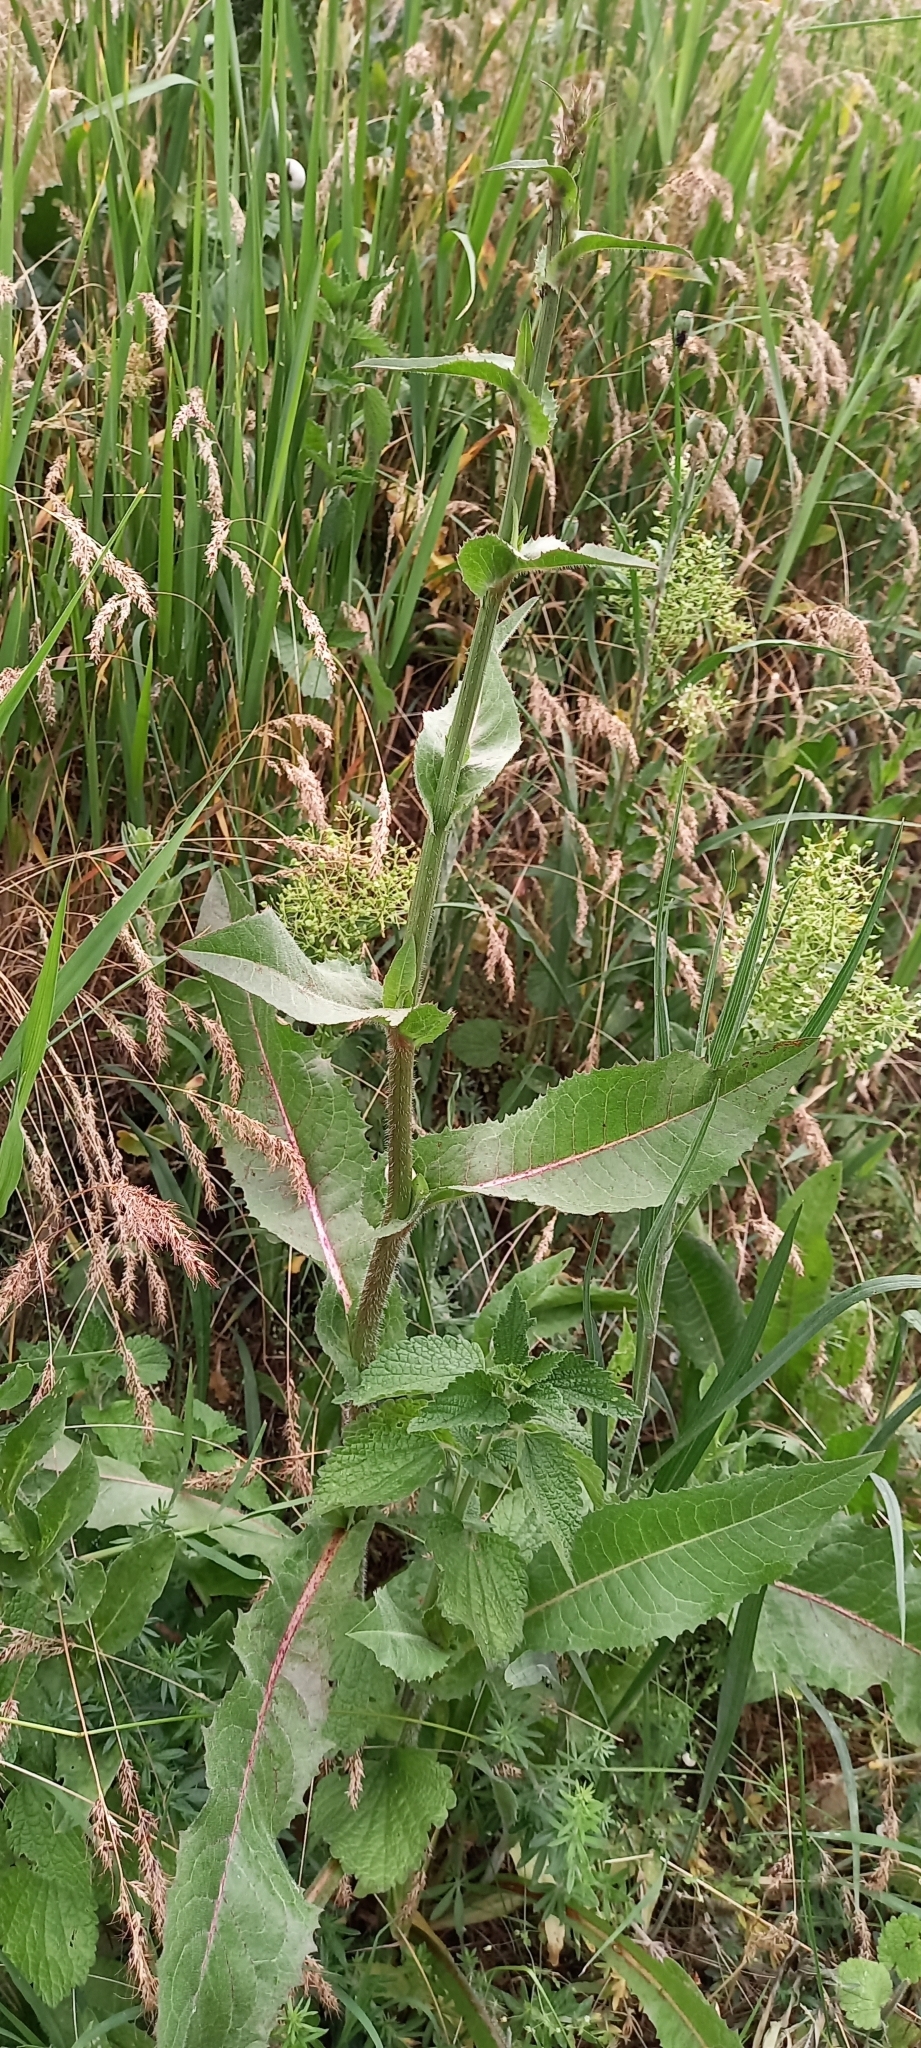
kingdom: Plantae
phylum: Tracheophyta
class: Magnoliopsida
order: Asterales
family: Asteraceae
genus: Cichorium
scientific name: Cichorium intybus
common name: Chicory
